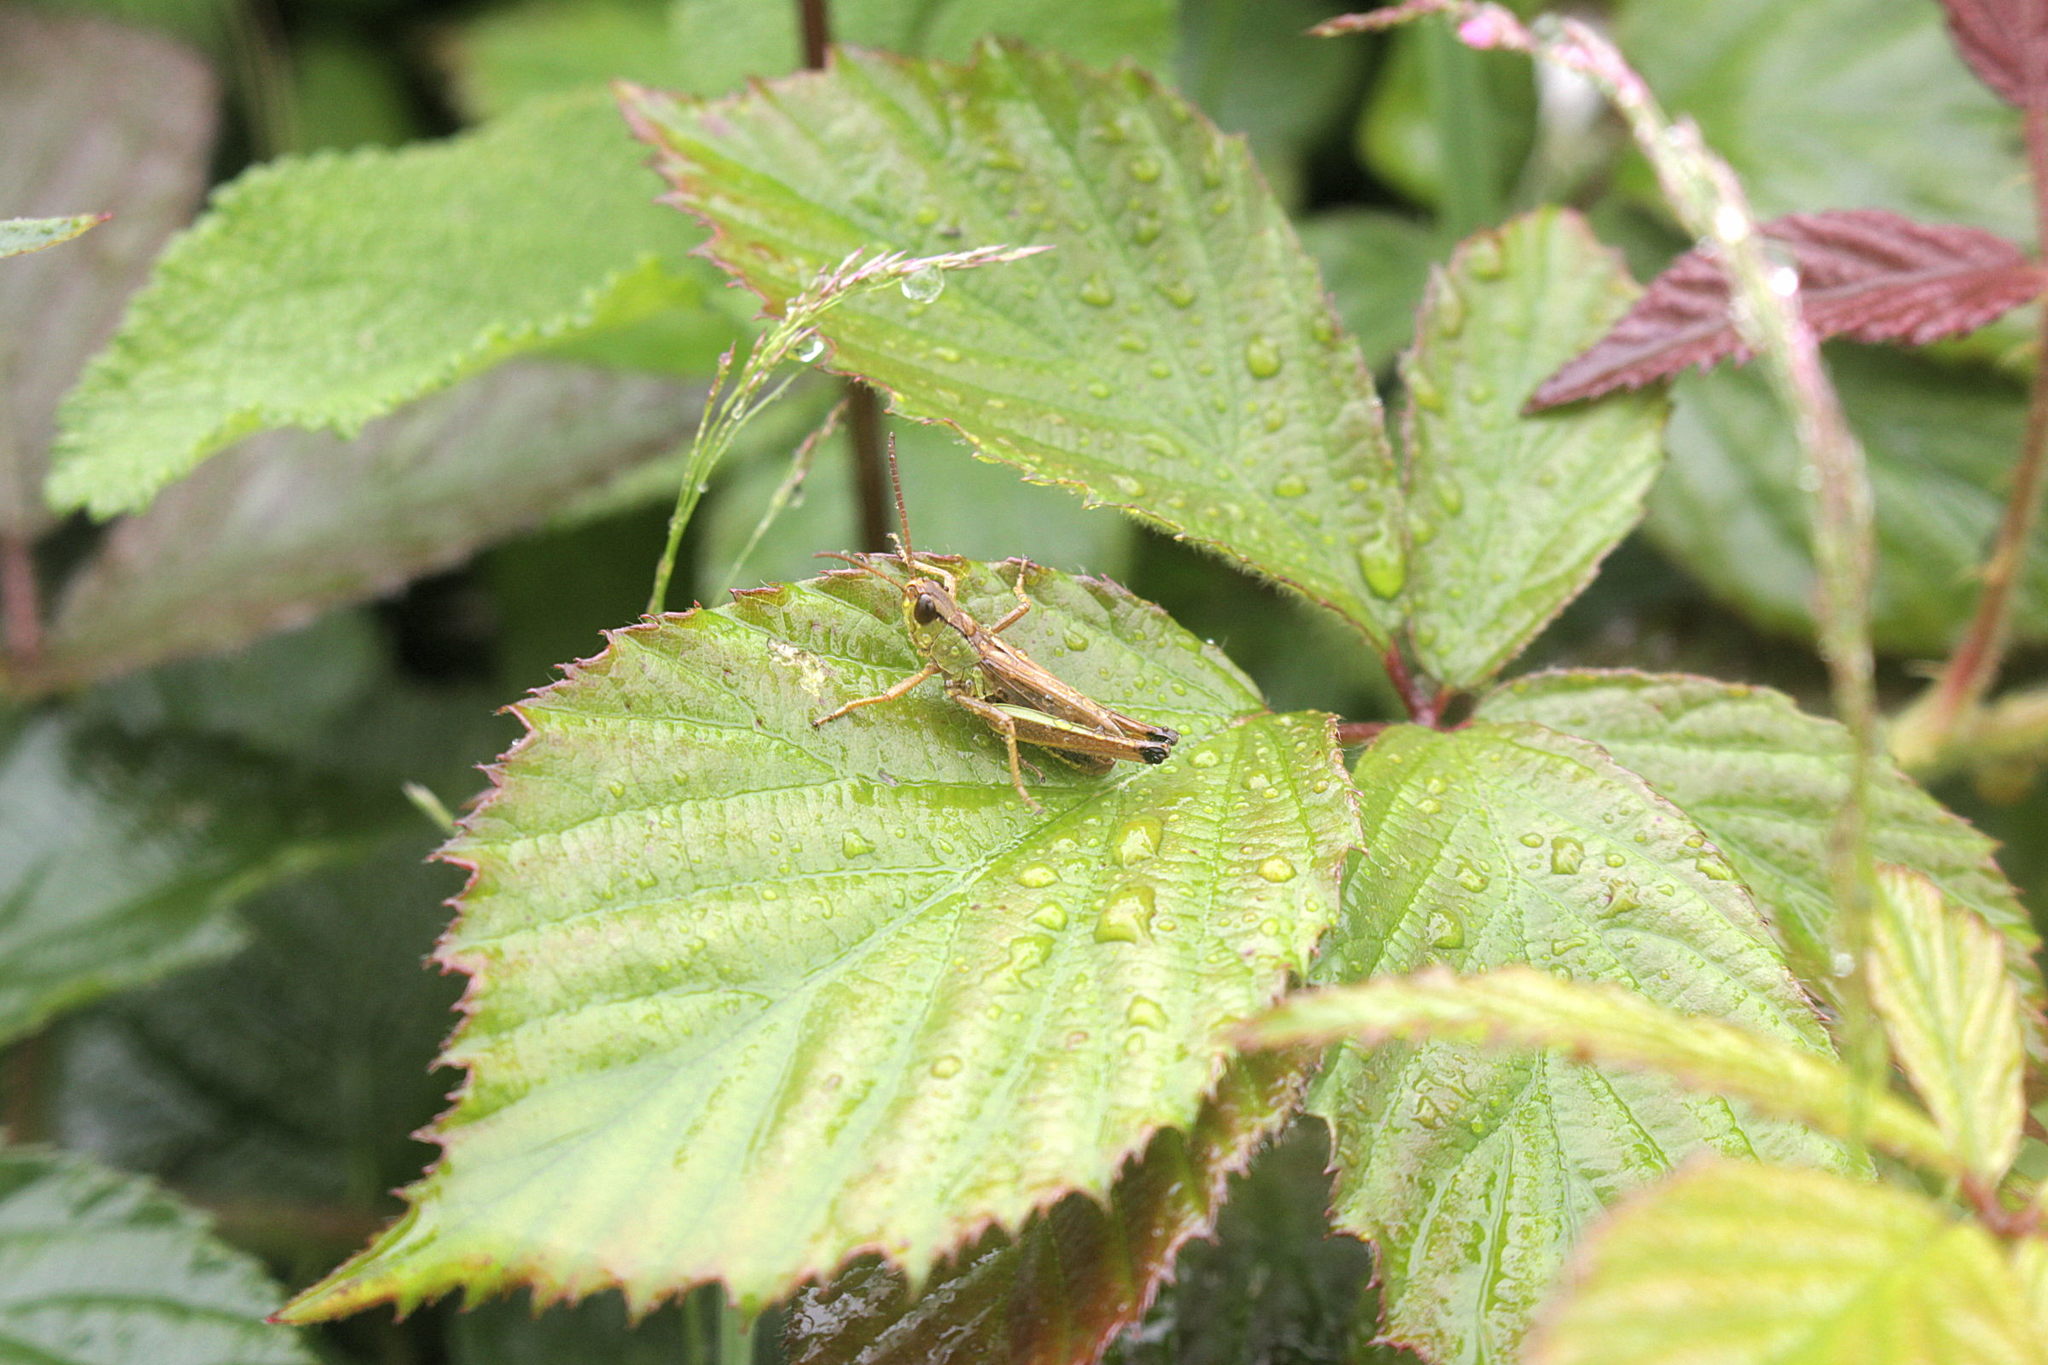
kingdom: Animalia
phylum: Arthropoda
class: Insecta
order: Orthoptera
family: Acrididae
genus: Pseudochorthippus
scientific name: Pseudochorthippus parallelus
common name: Meadow grasshopper
